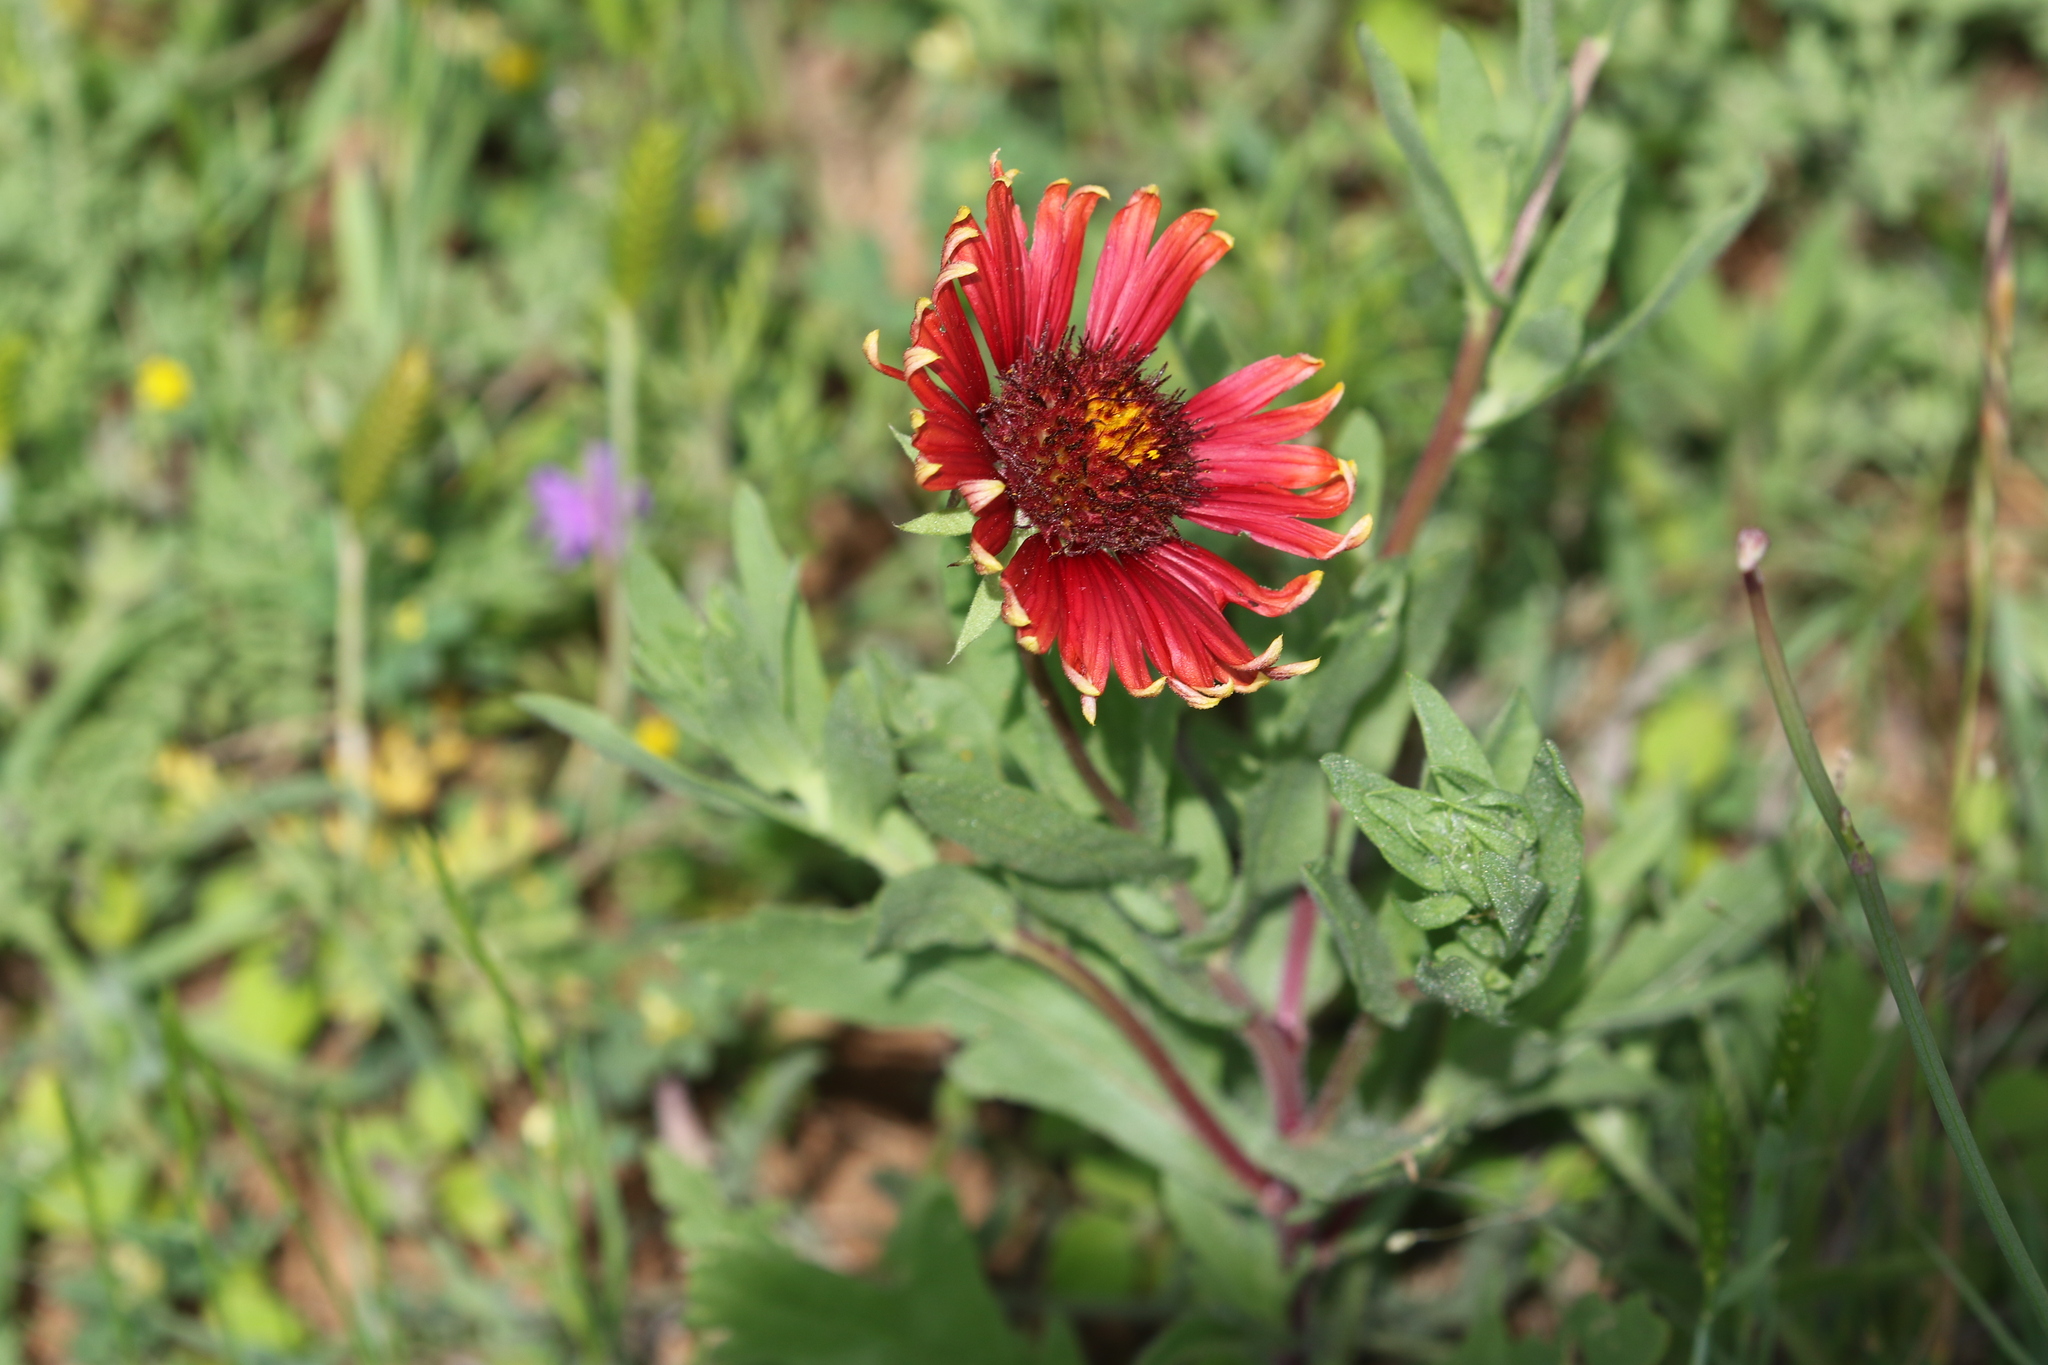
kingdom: Plantae
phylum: Tracheophyta
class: Magnoliopsida
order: Asterales
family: Asteraceae
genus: Gaillardia
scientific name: Gaillardia pulchella
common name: Firewheel
